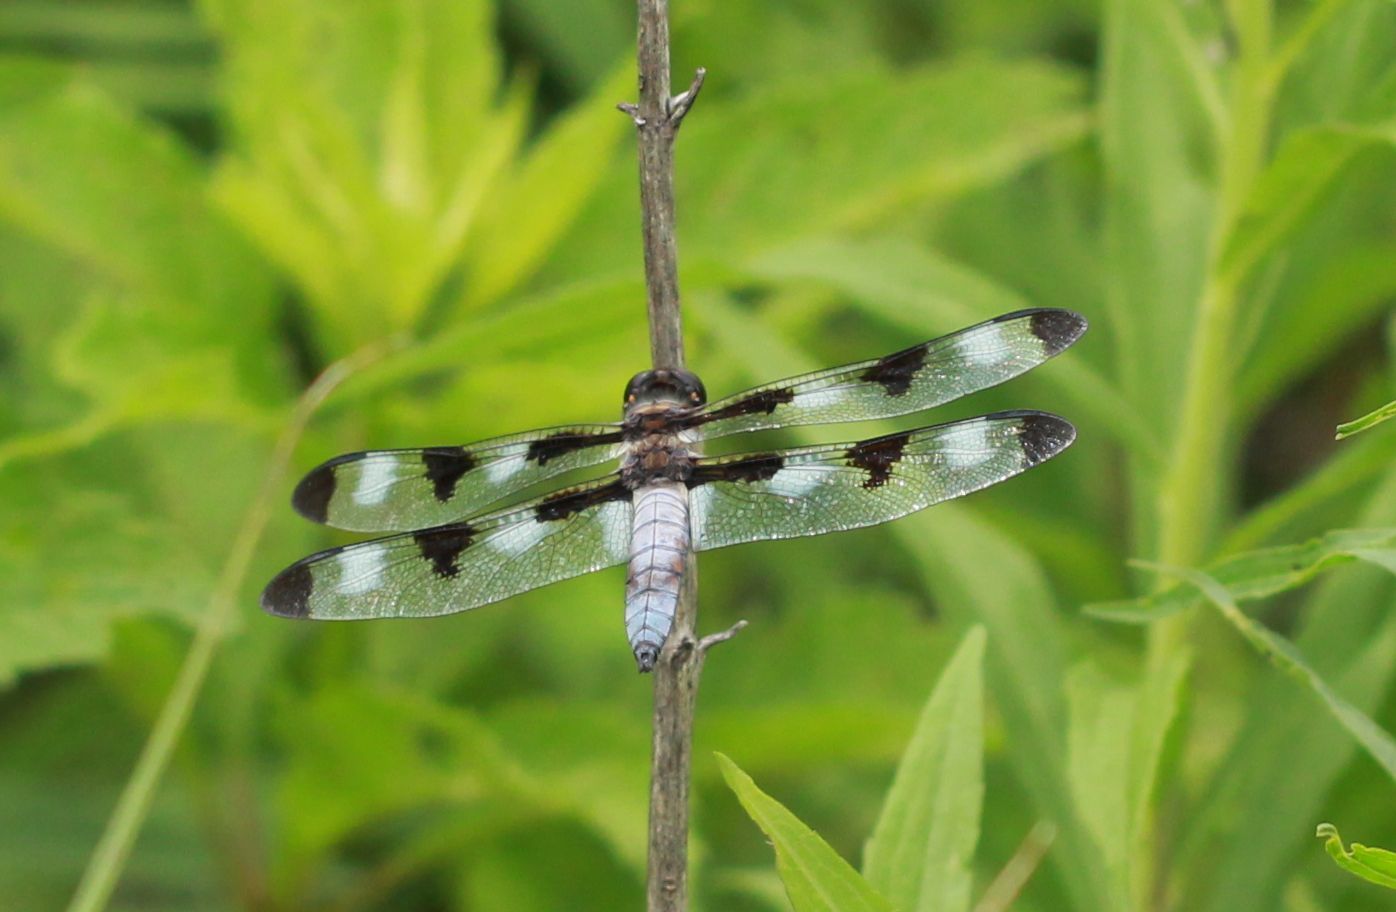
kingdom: Animalia
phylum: Arthropoda
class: Insecta
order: Odonata
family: Libellulidae
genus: Libellula
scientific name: Libellula pulchella
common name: Twelve-spotted skimmer
